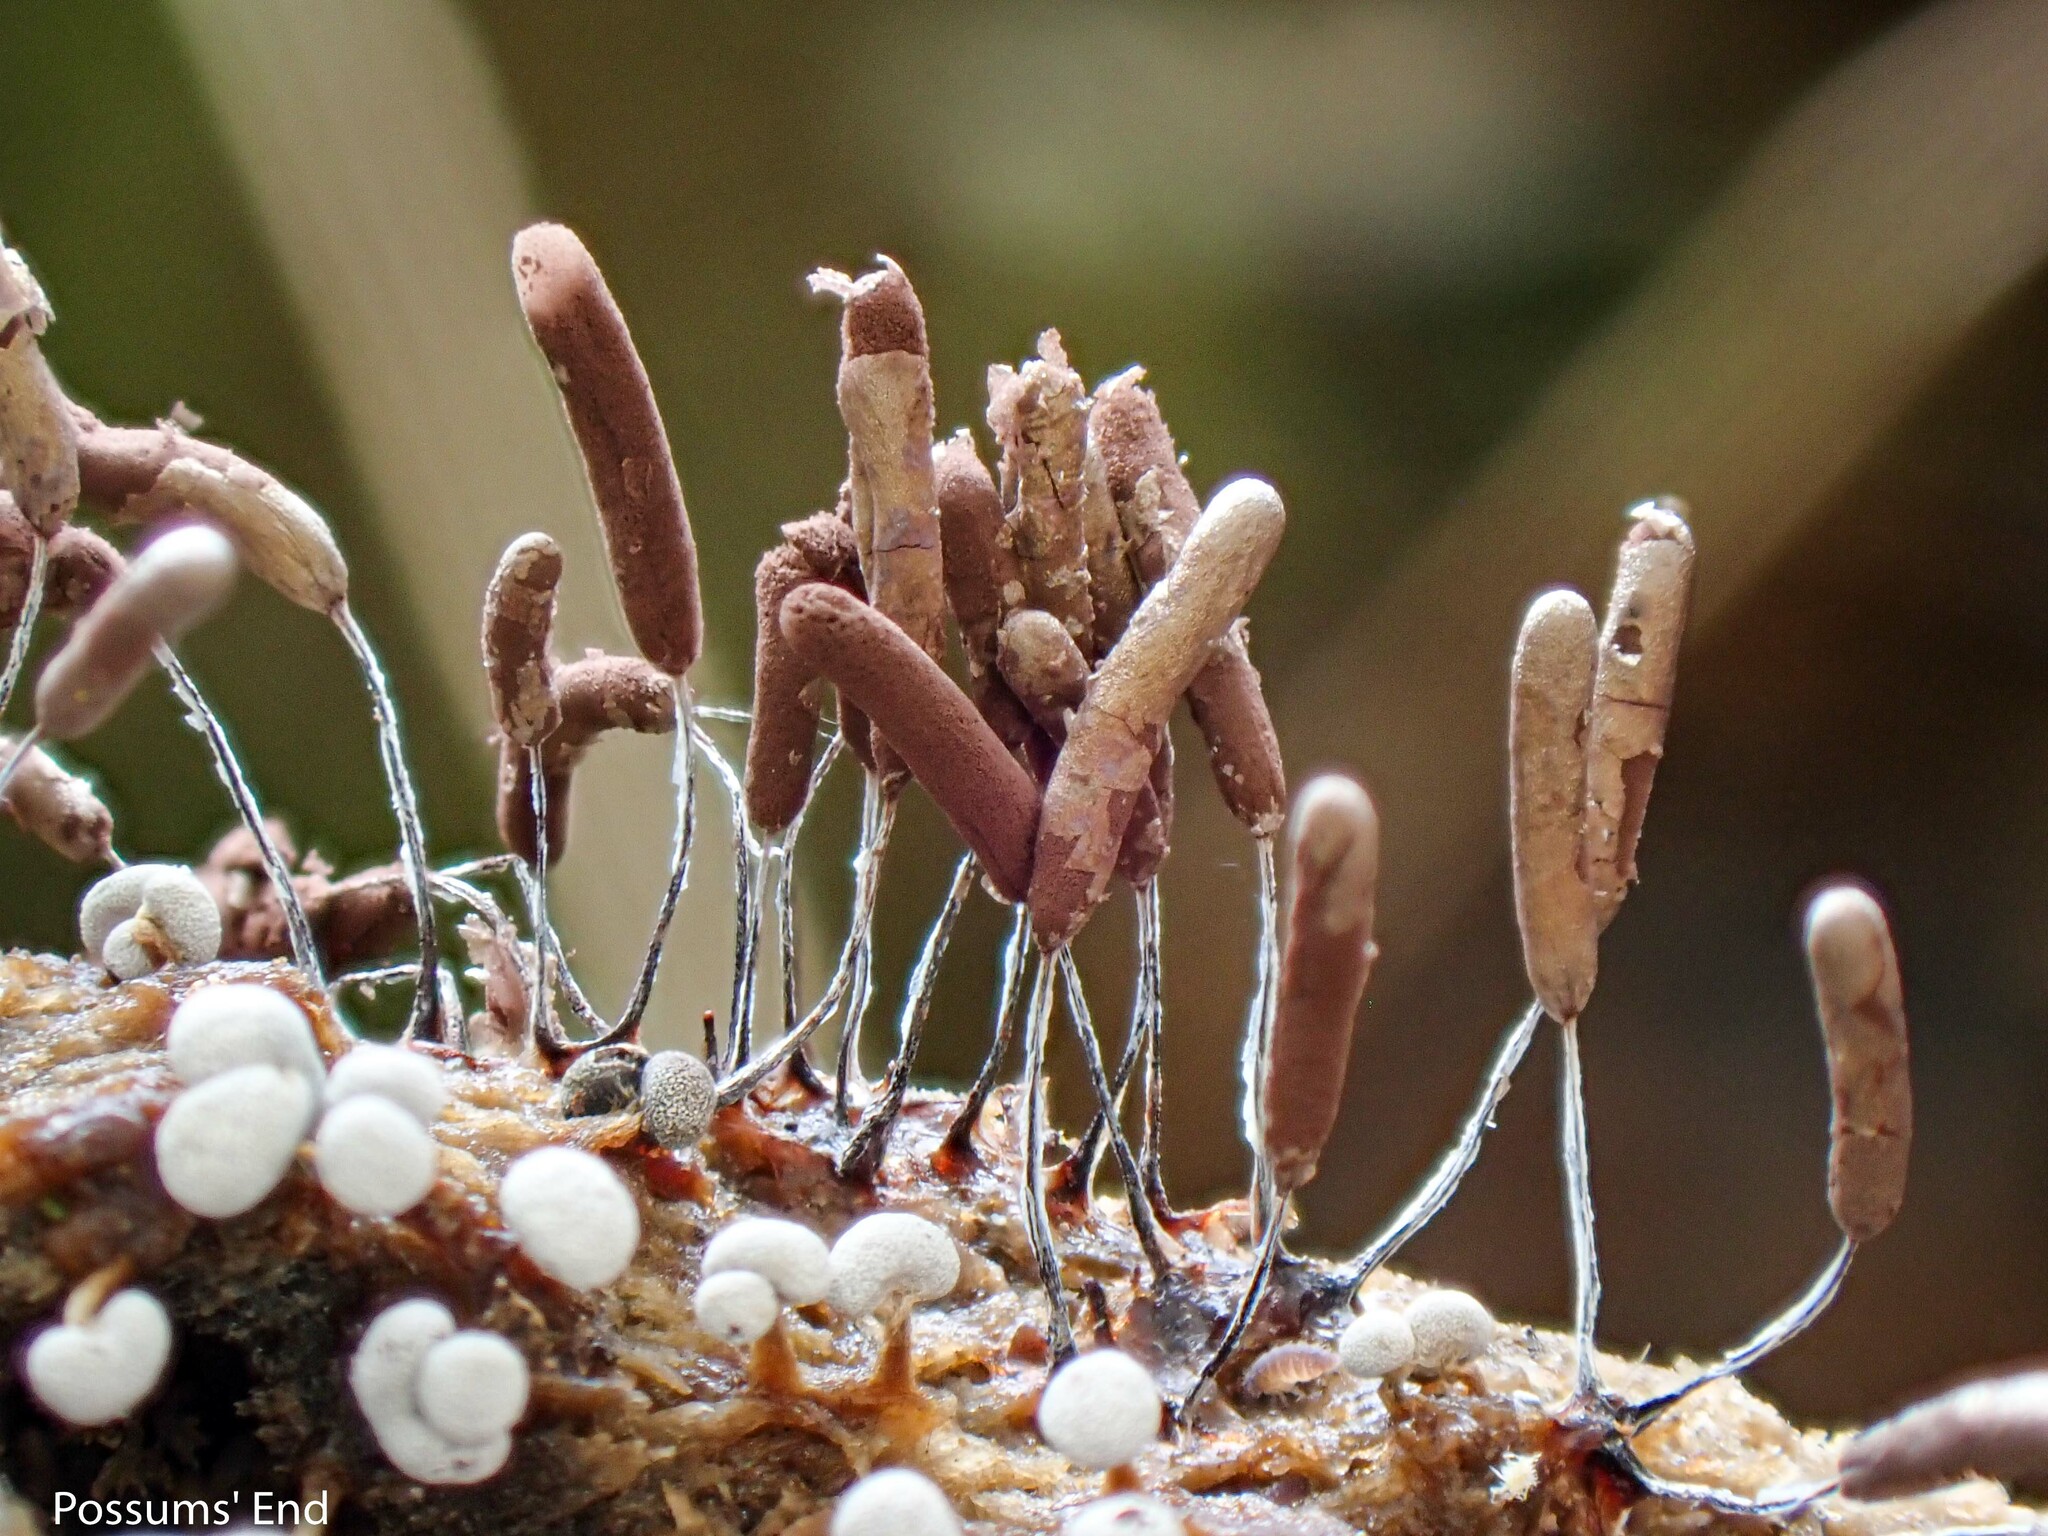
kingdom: Protozoa
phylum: Mycetozoa
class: Myxomycetes
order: Stemonitidales
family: Stemonitidaceae
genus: Stemonitopsis
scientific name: Stemonitopsis typhina
